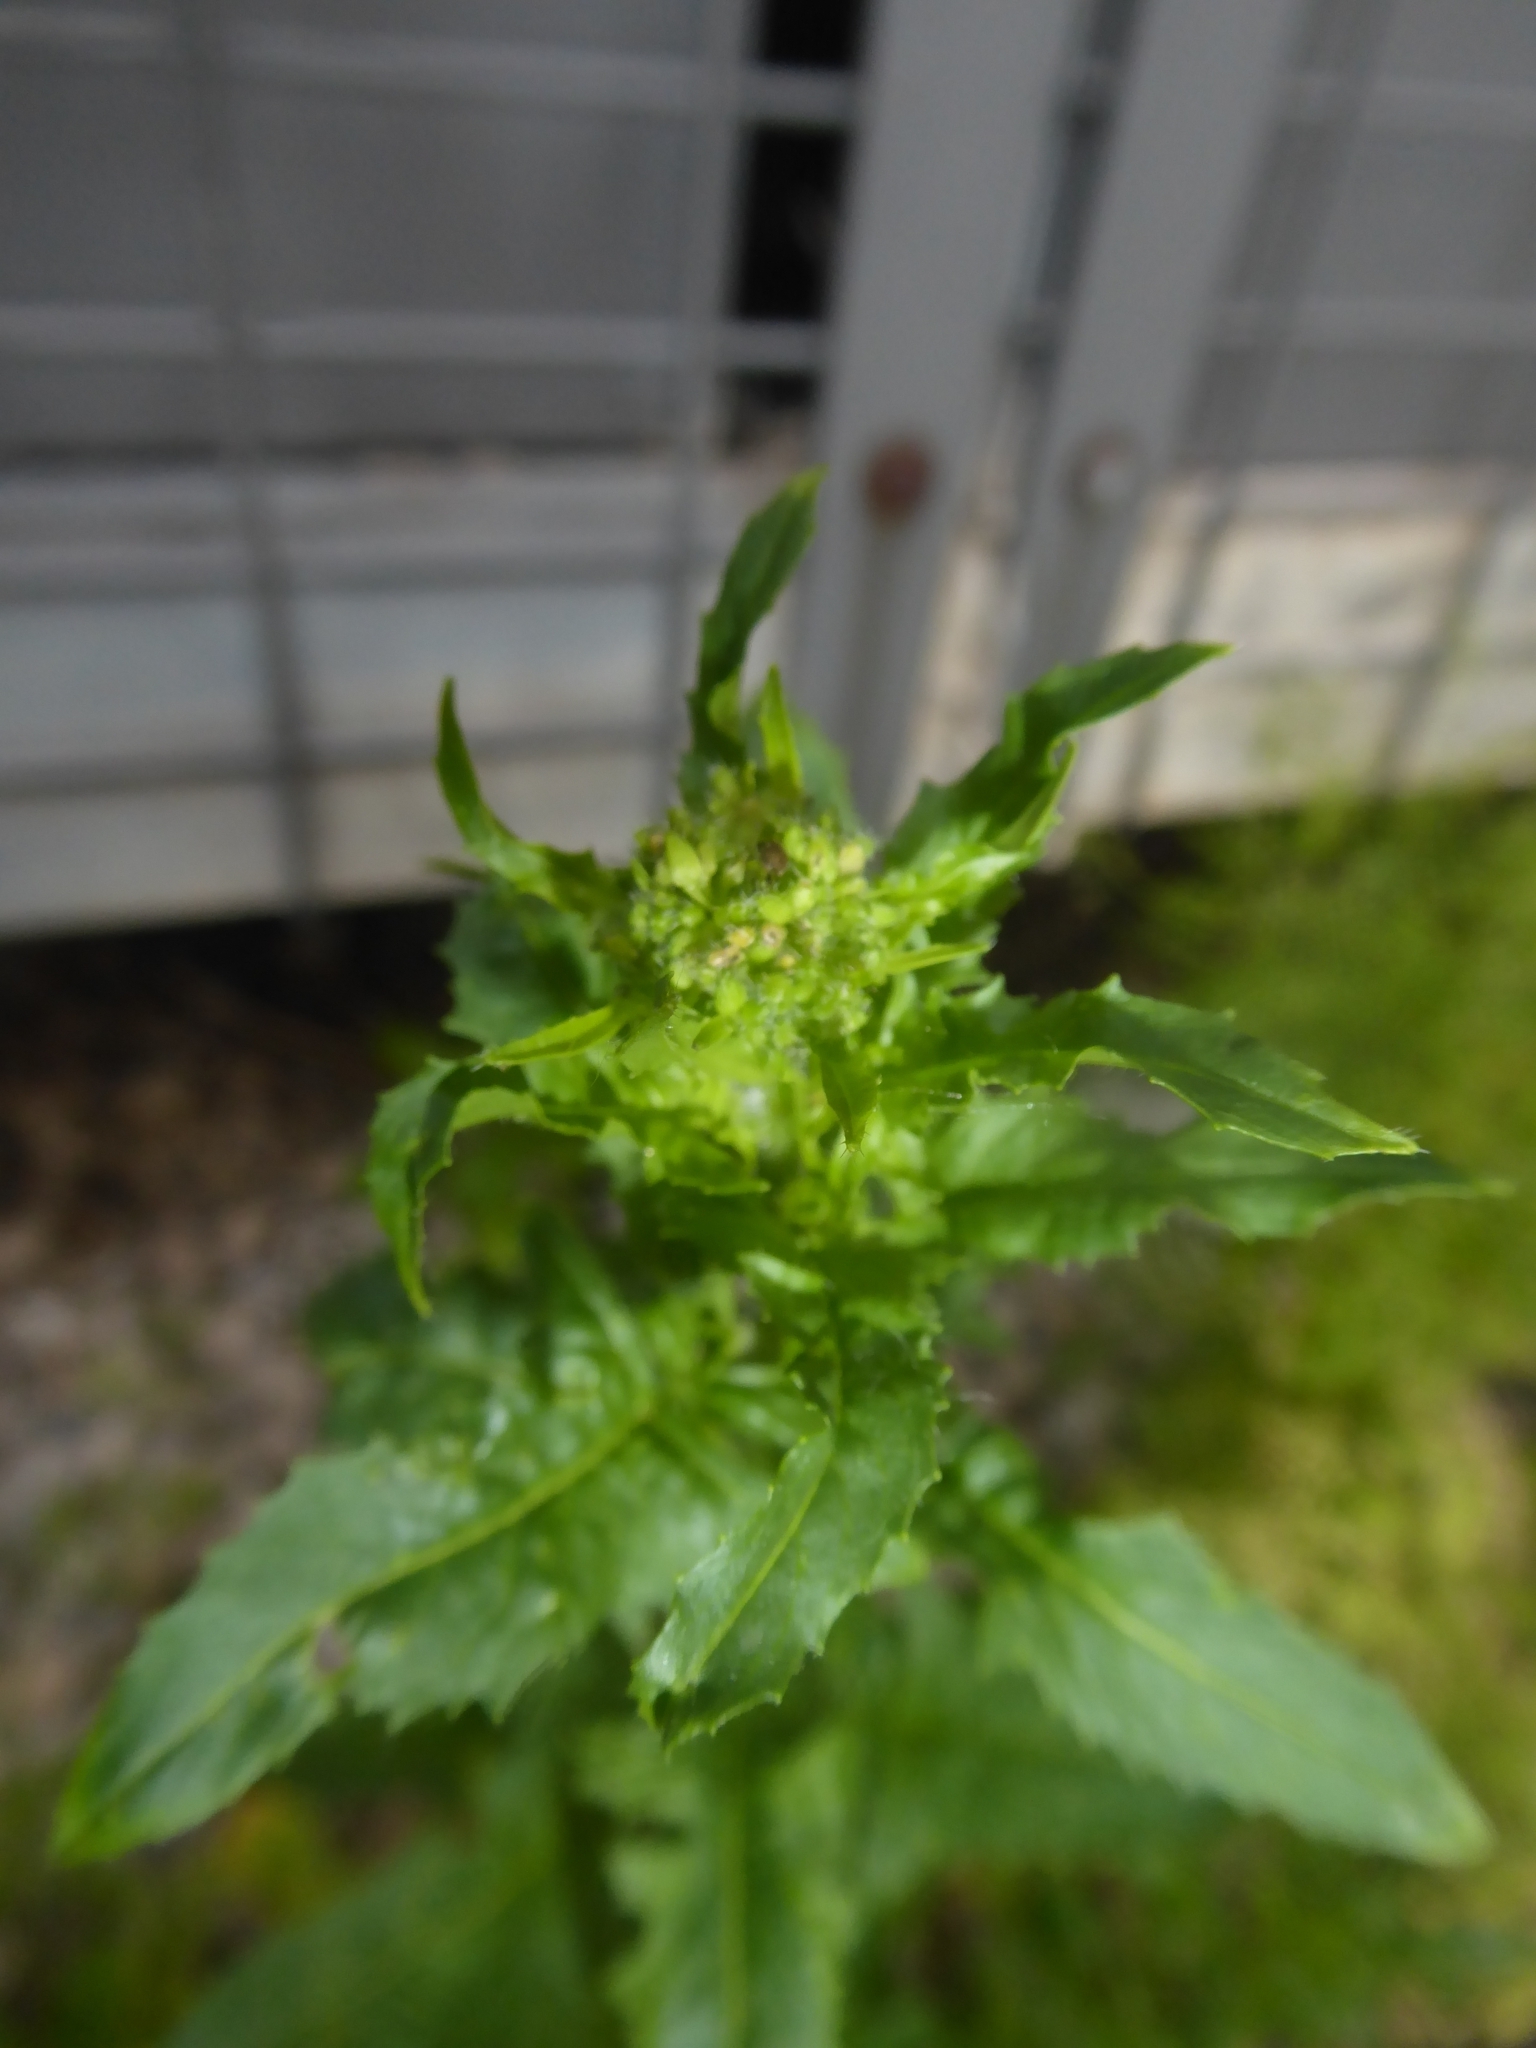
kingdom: Plantae
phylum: Tracheophyta
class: Magnoliopsida
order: Brassicales
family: Brassicaceae
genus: Sisymbrium
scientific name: Sisymbrium loeselii
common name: False london-rocket
